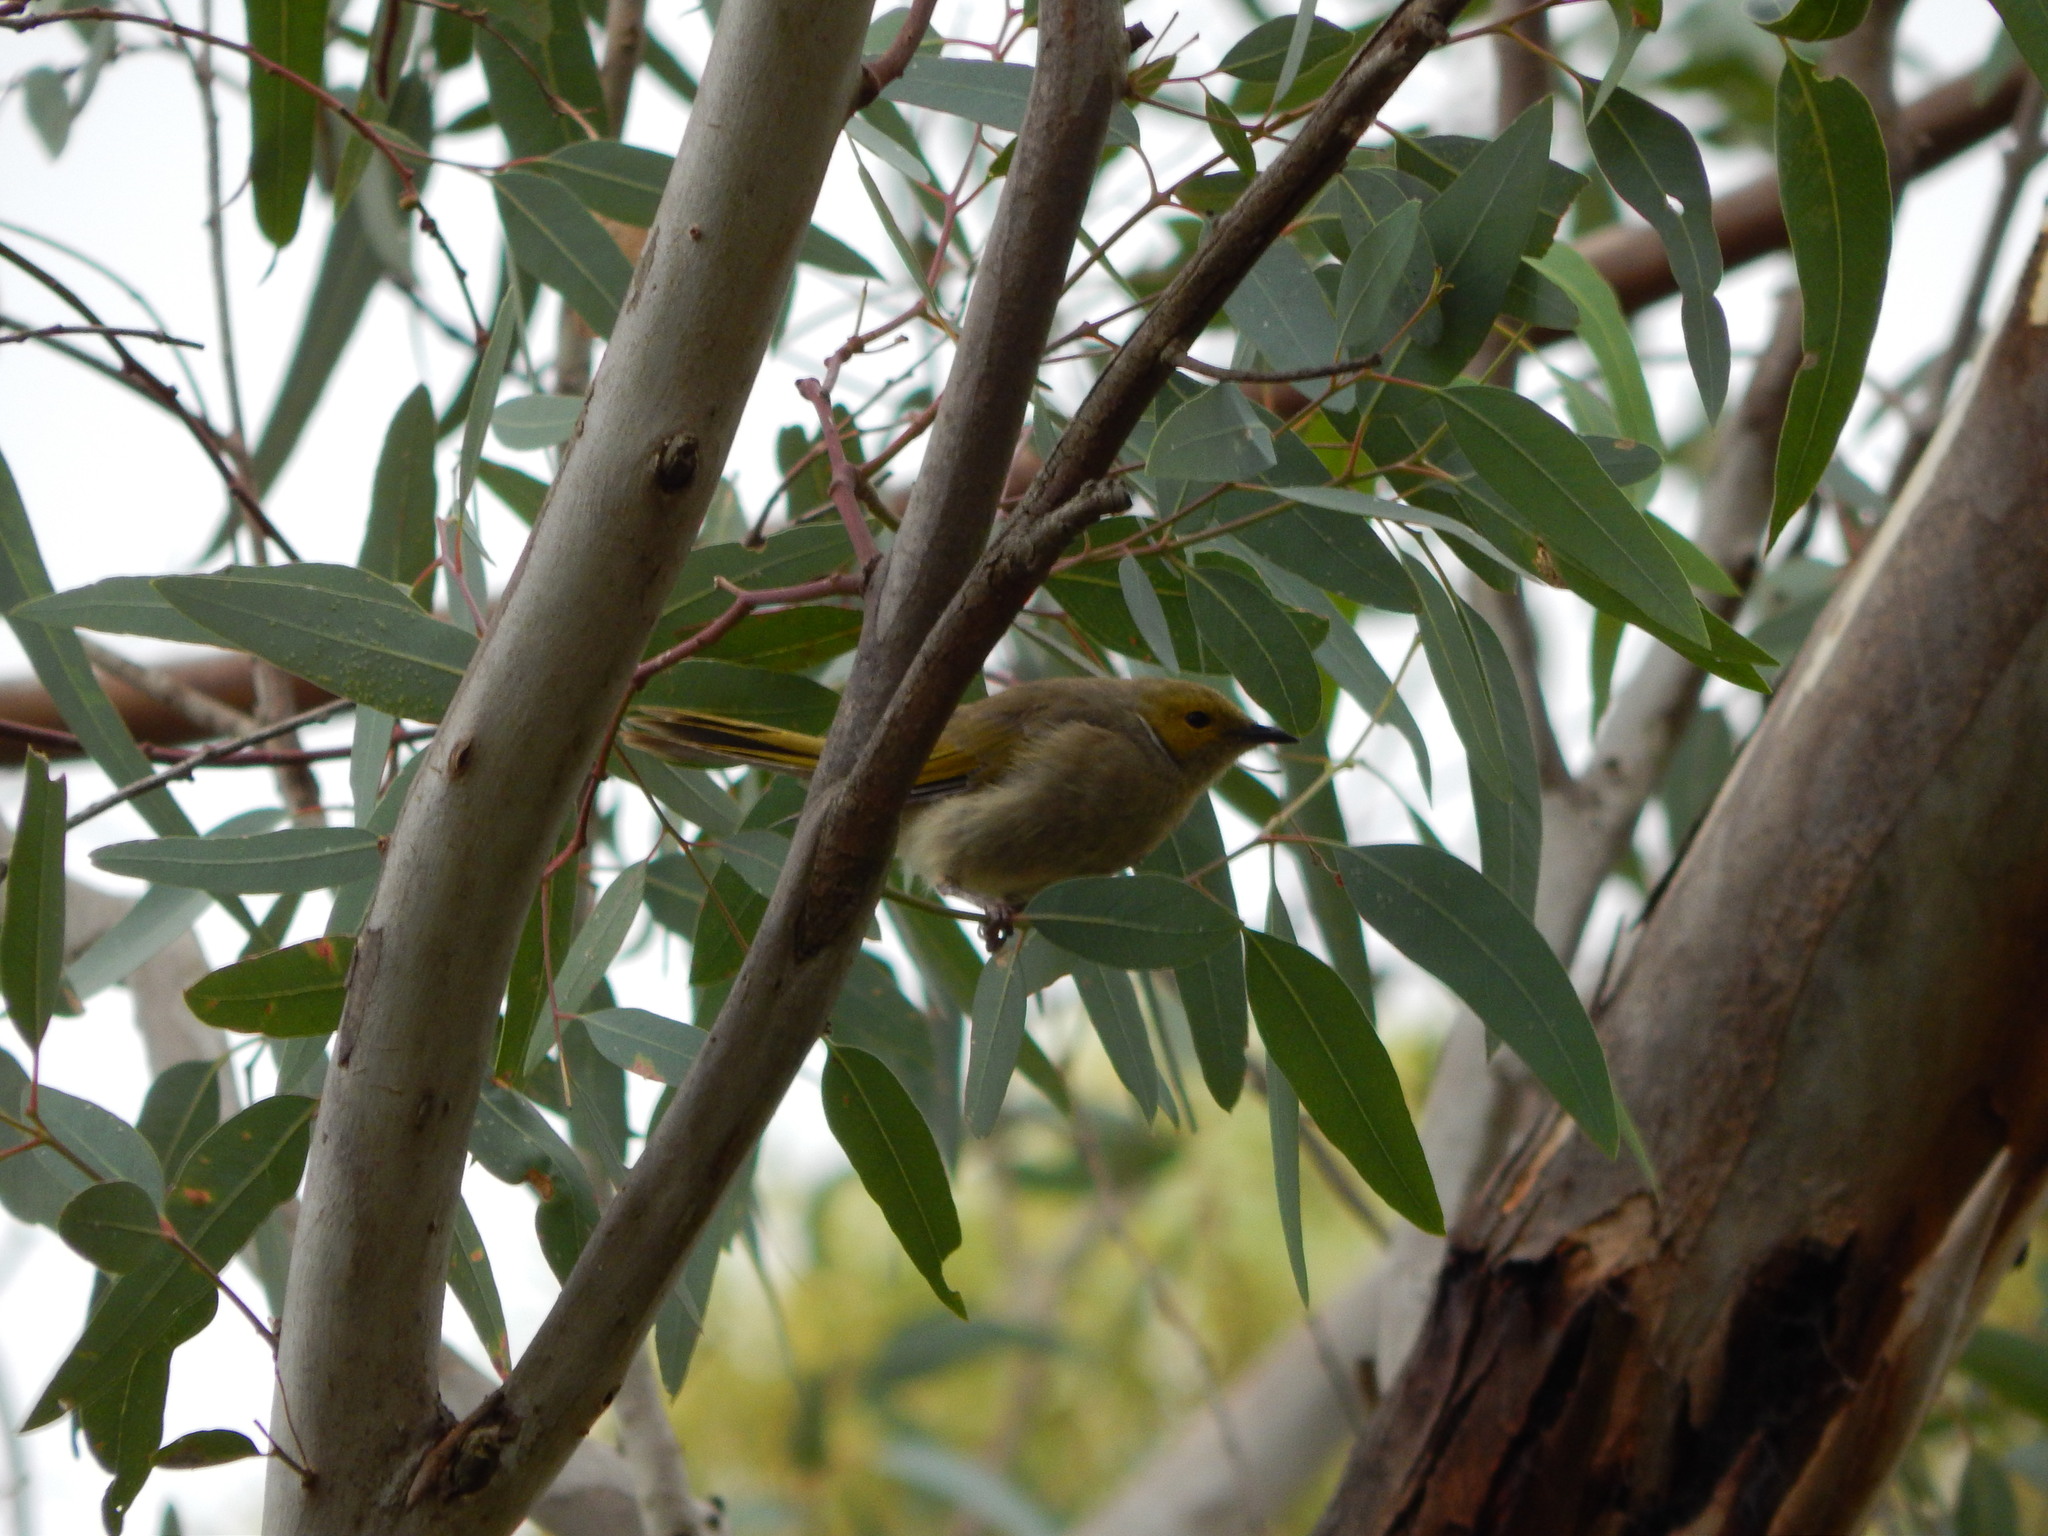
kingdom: Animalia
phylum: Chordata
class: Aves
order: Passeriformes
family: Meliphagidae
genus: Ptilotula
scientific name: Ptilotula penicillata
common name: White-plumed honeyeater
